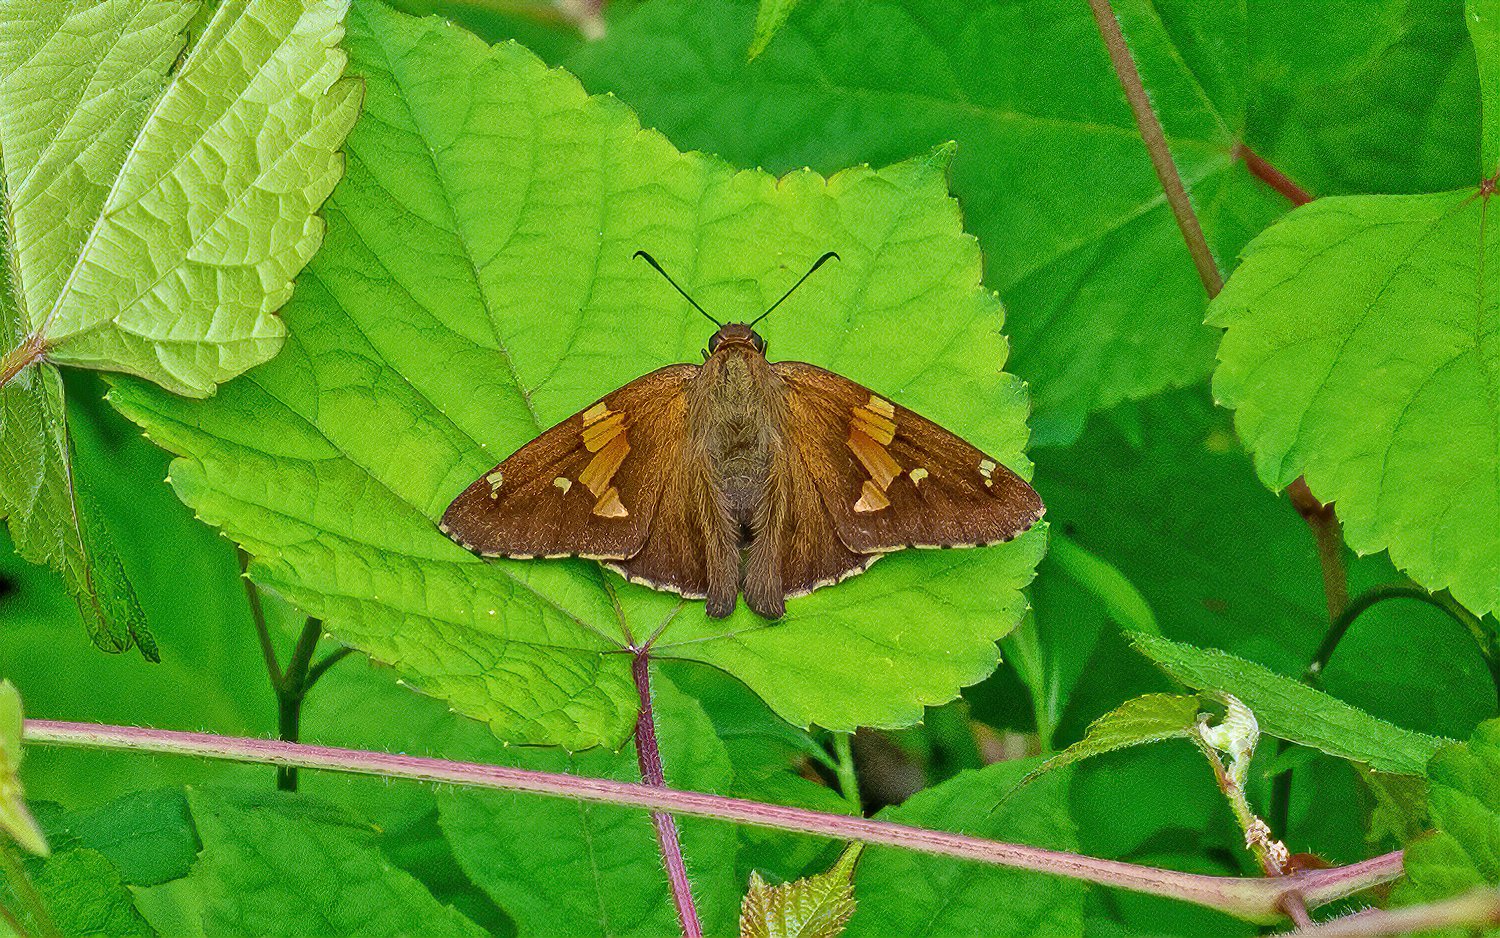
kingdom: Animalia
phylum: Arthropoda
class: Insecta
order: Lepidoptera
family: Hesperiidae
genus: Epargyreus
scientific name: Epargyreus clarus
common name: Silver-spotted skipper
